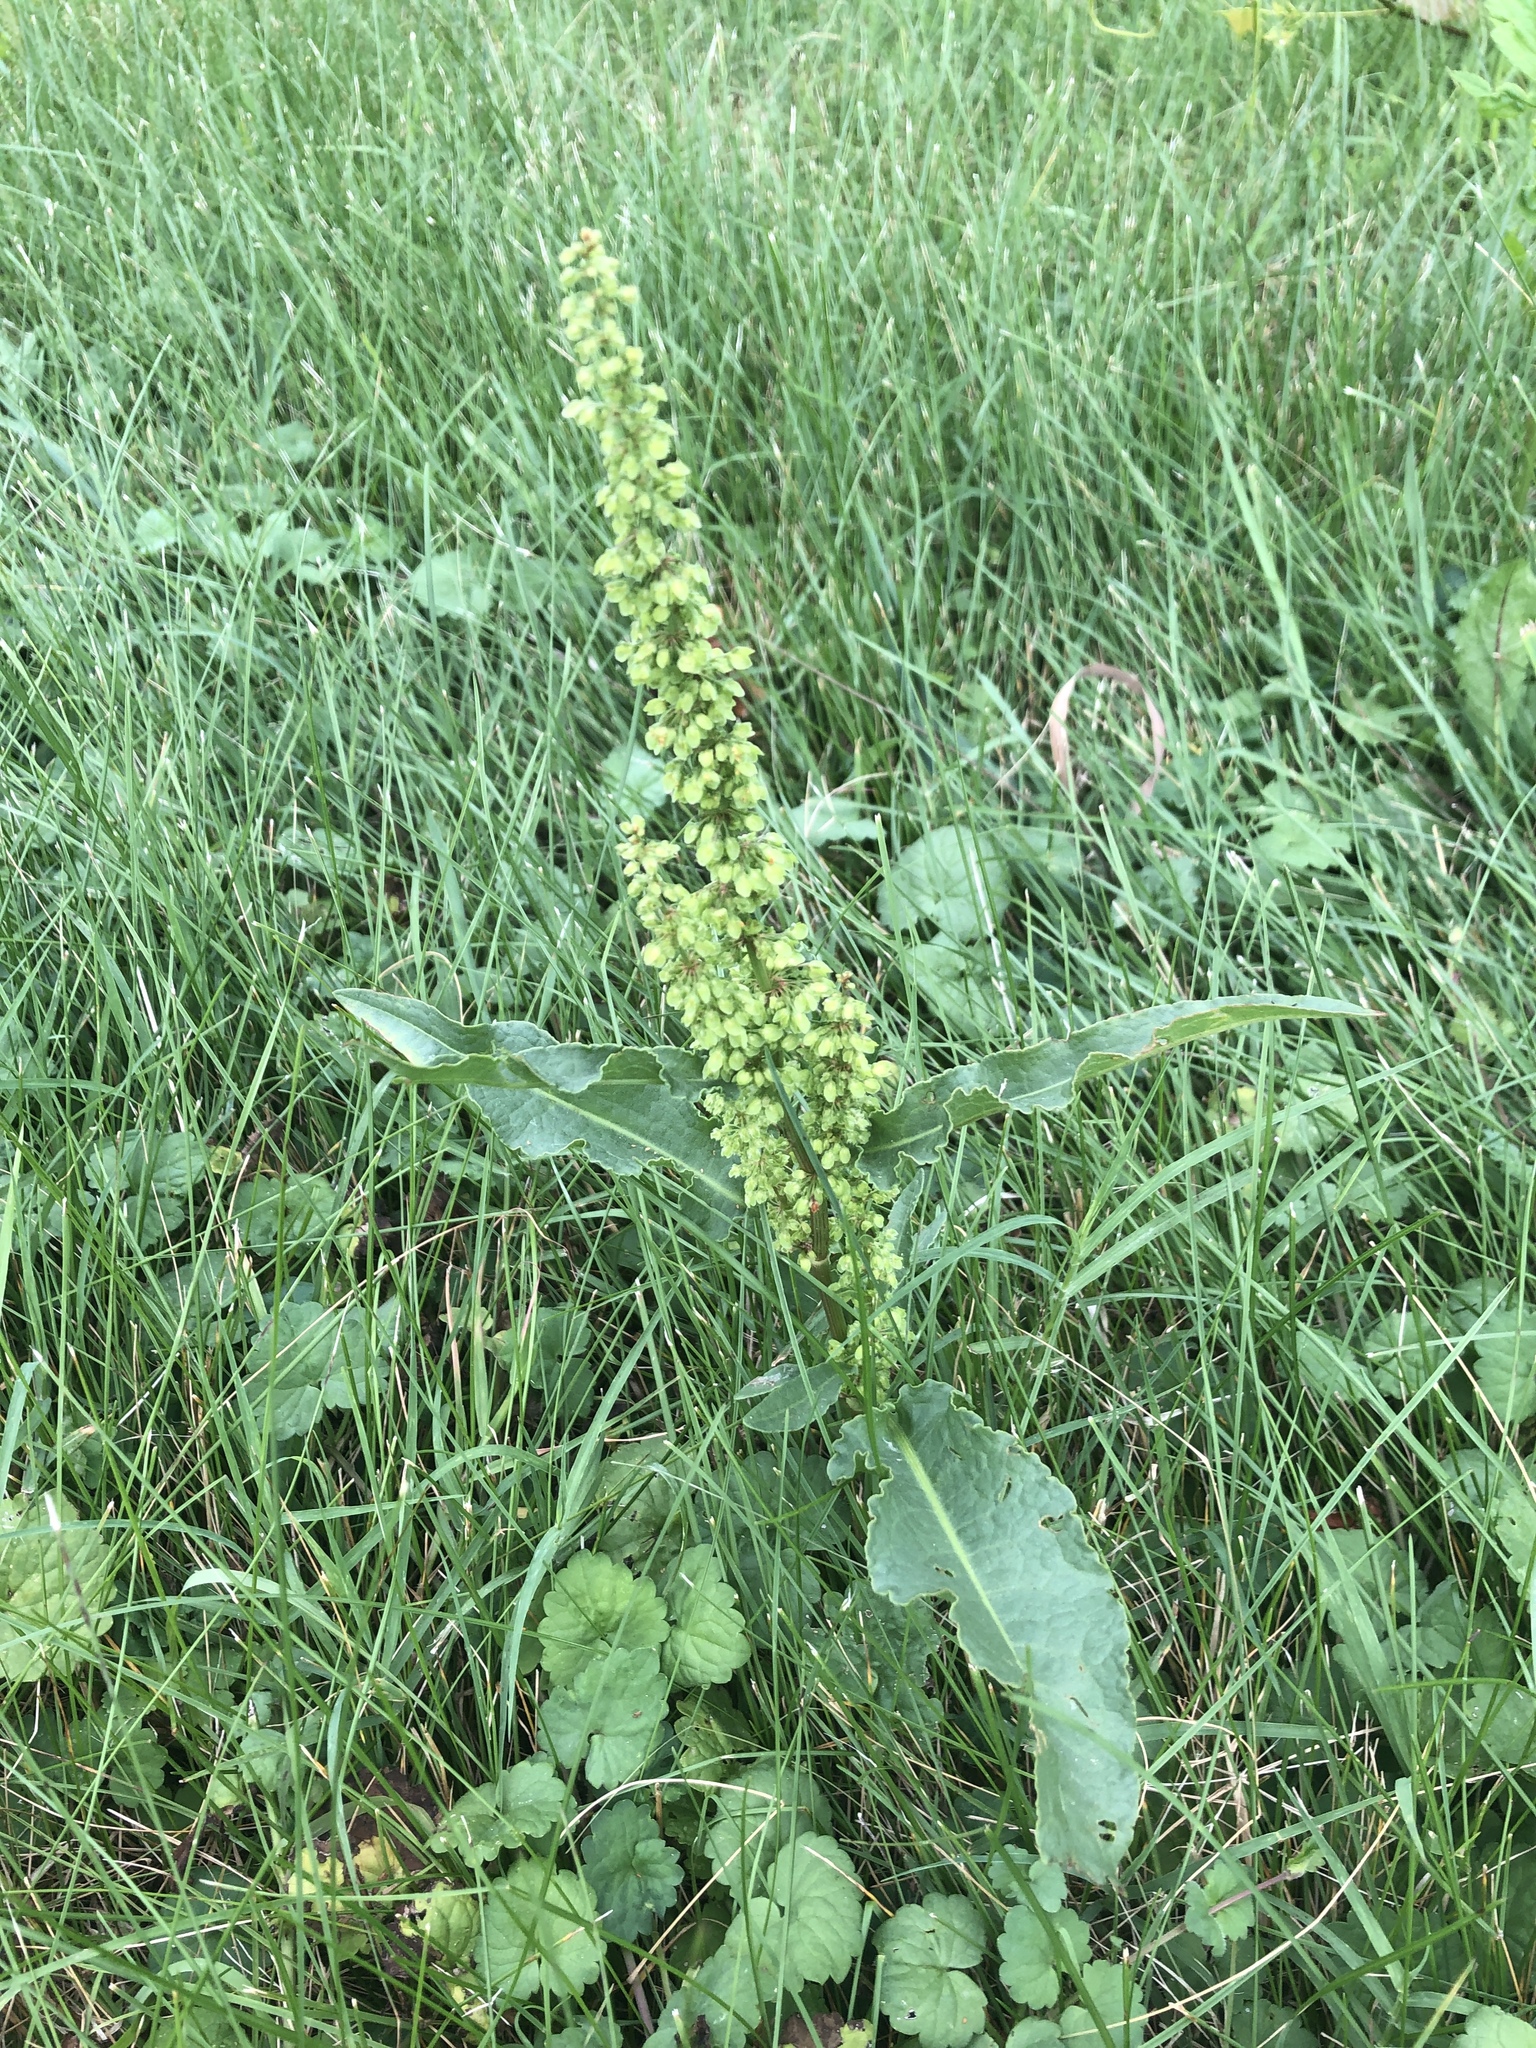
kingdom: Plantae
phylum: Tracheophyta
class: Magnoliopsida
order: Caryophyllales
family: Polygonaceae
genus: Rumex
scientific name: Rumex crispus
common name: Curled dock
